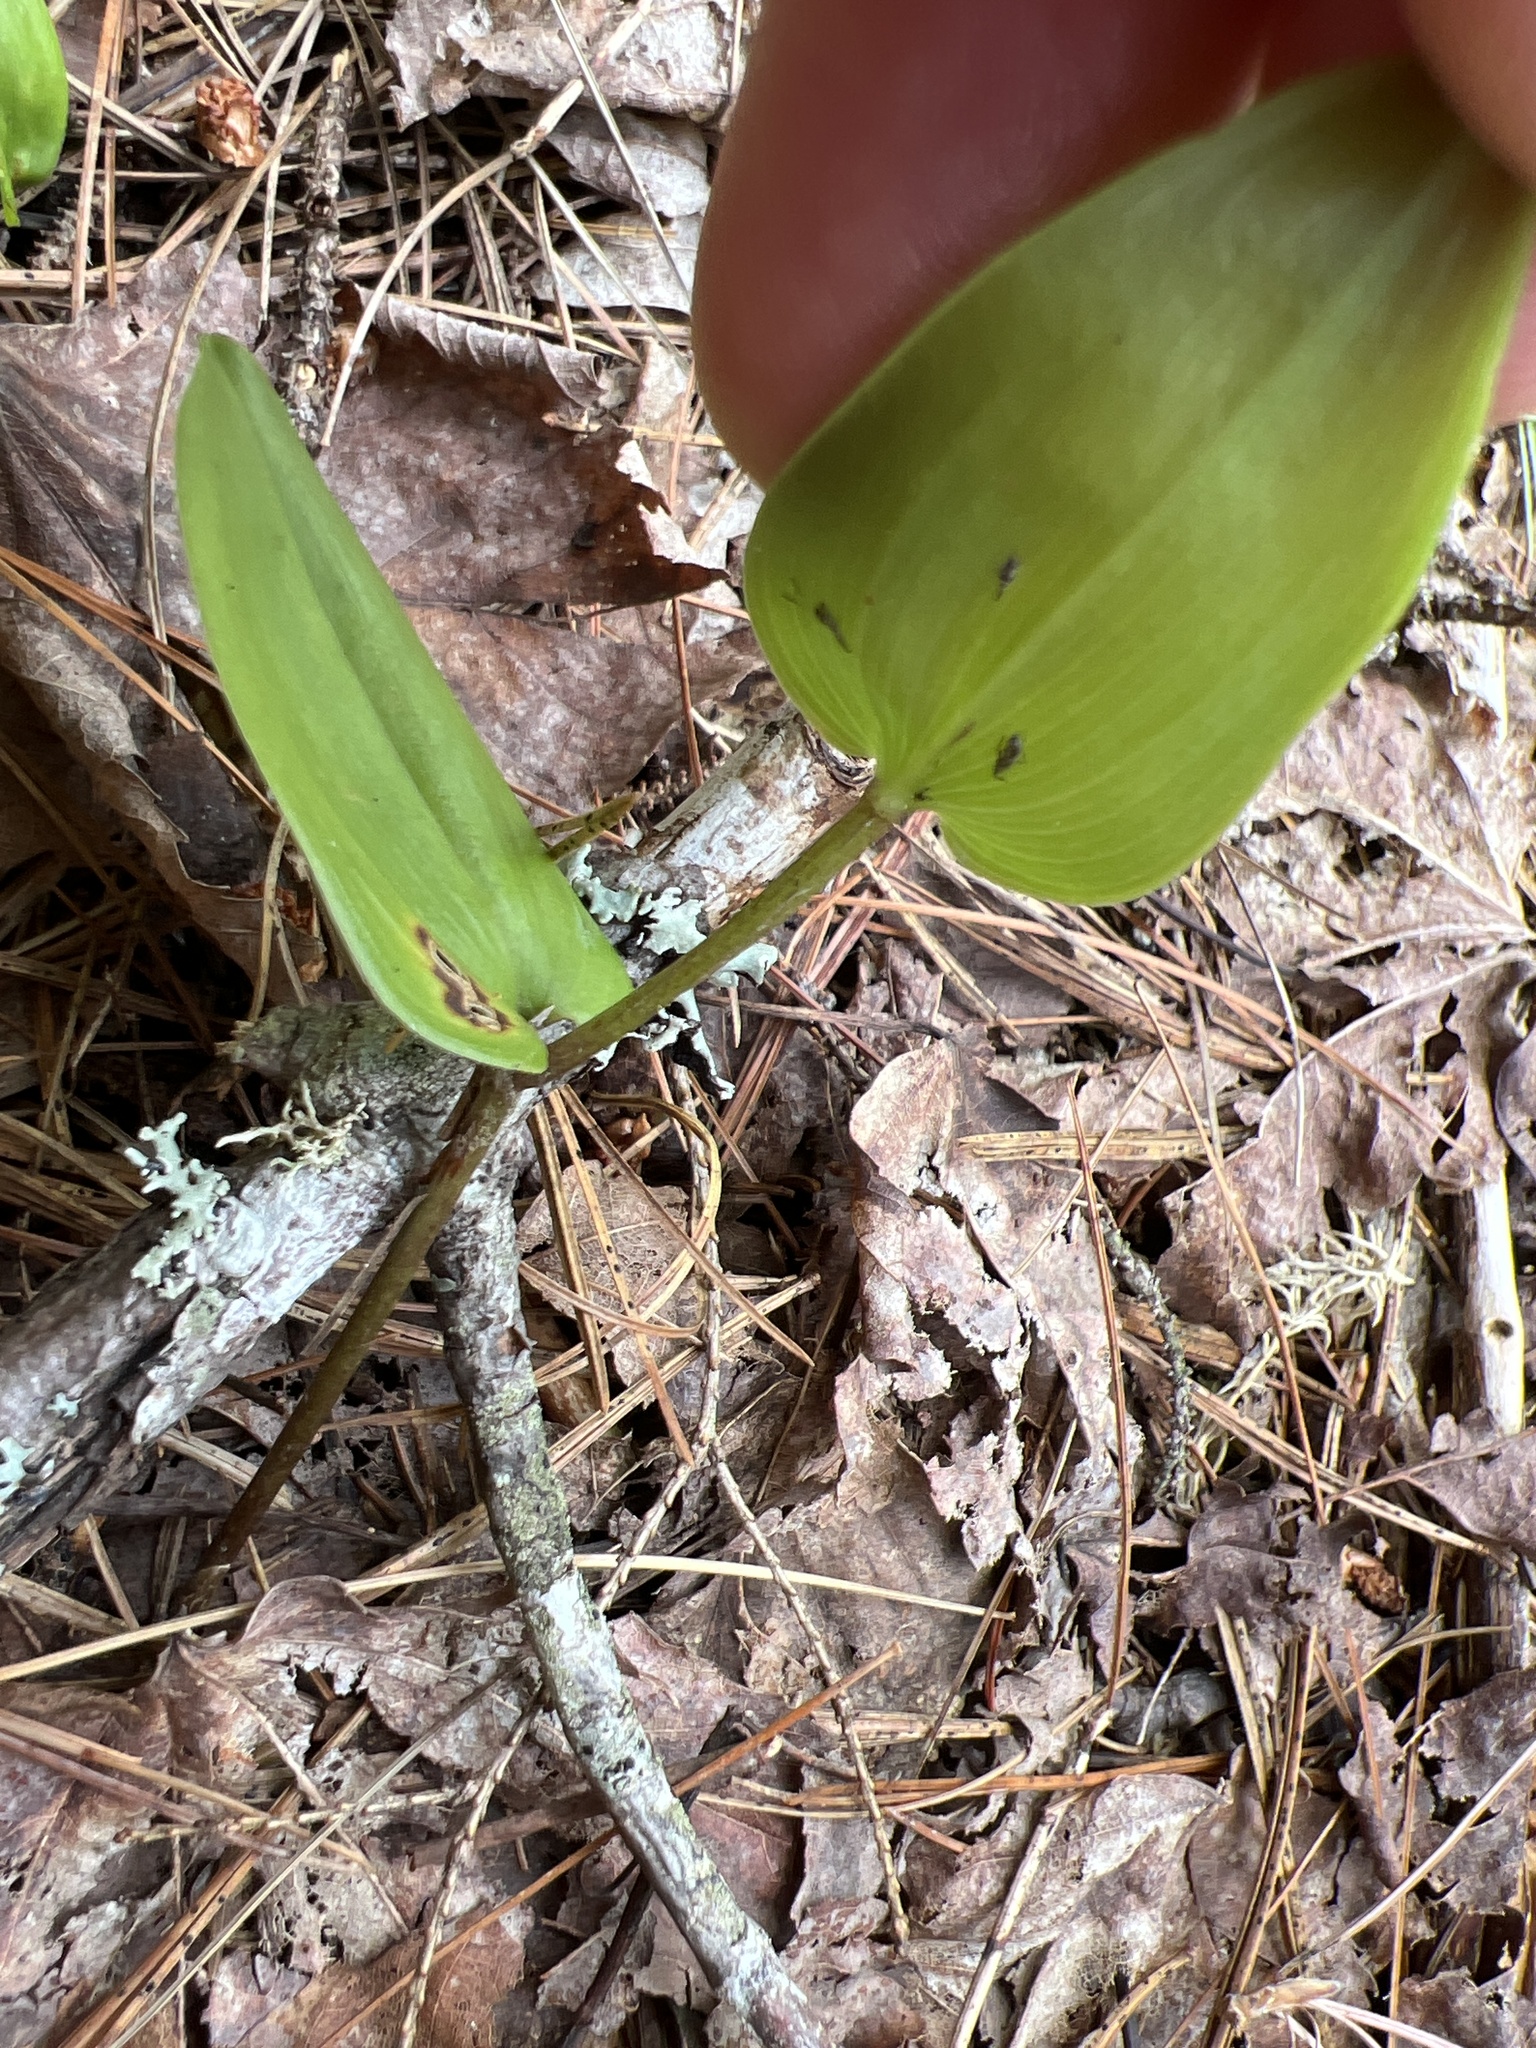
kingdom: Plantae
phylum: Tracheophyta
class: Liliopsida
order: Asparagales
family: Asparagaceae
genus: Maianthemum
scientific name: Maianthemum canadense
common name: False lily-of-the-valley
